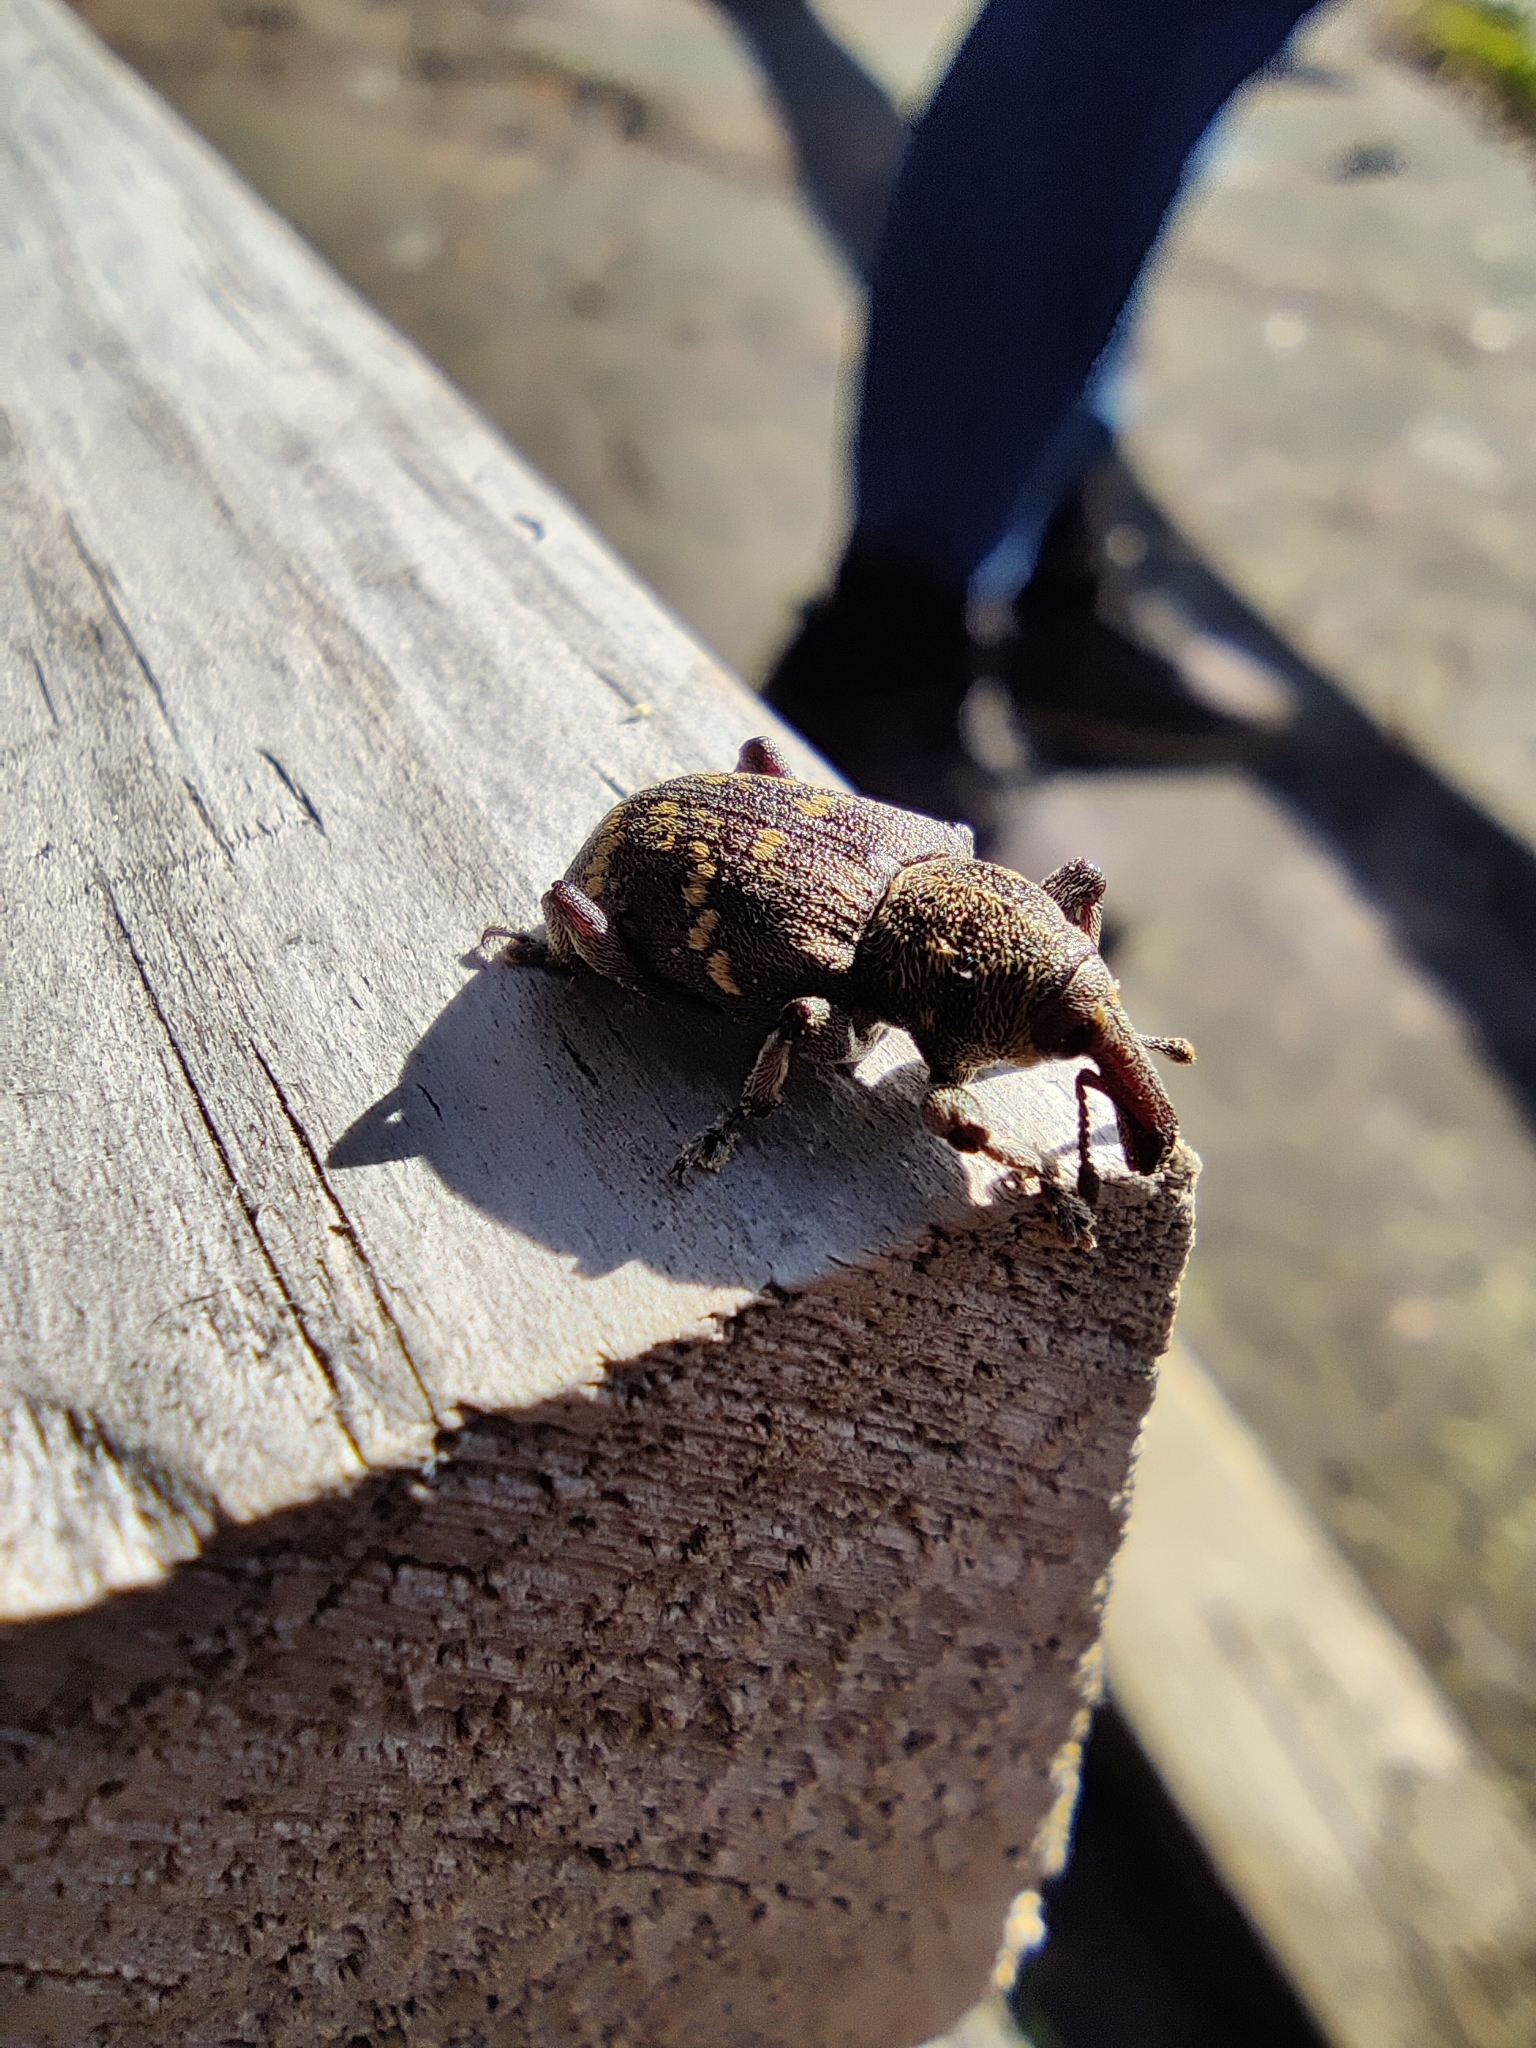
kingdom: Animalia
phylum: Arthropoda
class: Insecta
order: Coleoptera
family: Curculionidae
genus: Hylobius
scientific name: Hylobius abietis
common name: Large pine weevil
